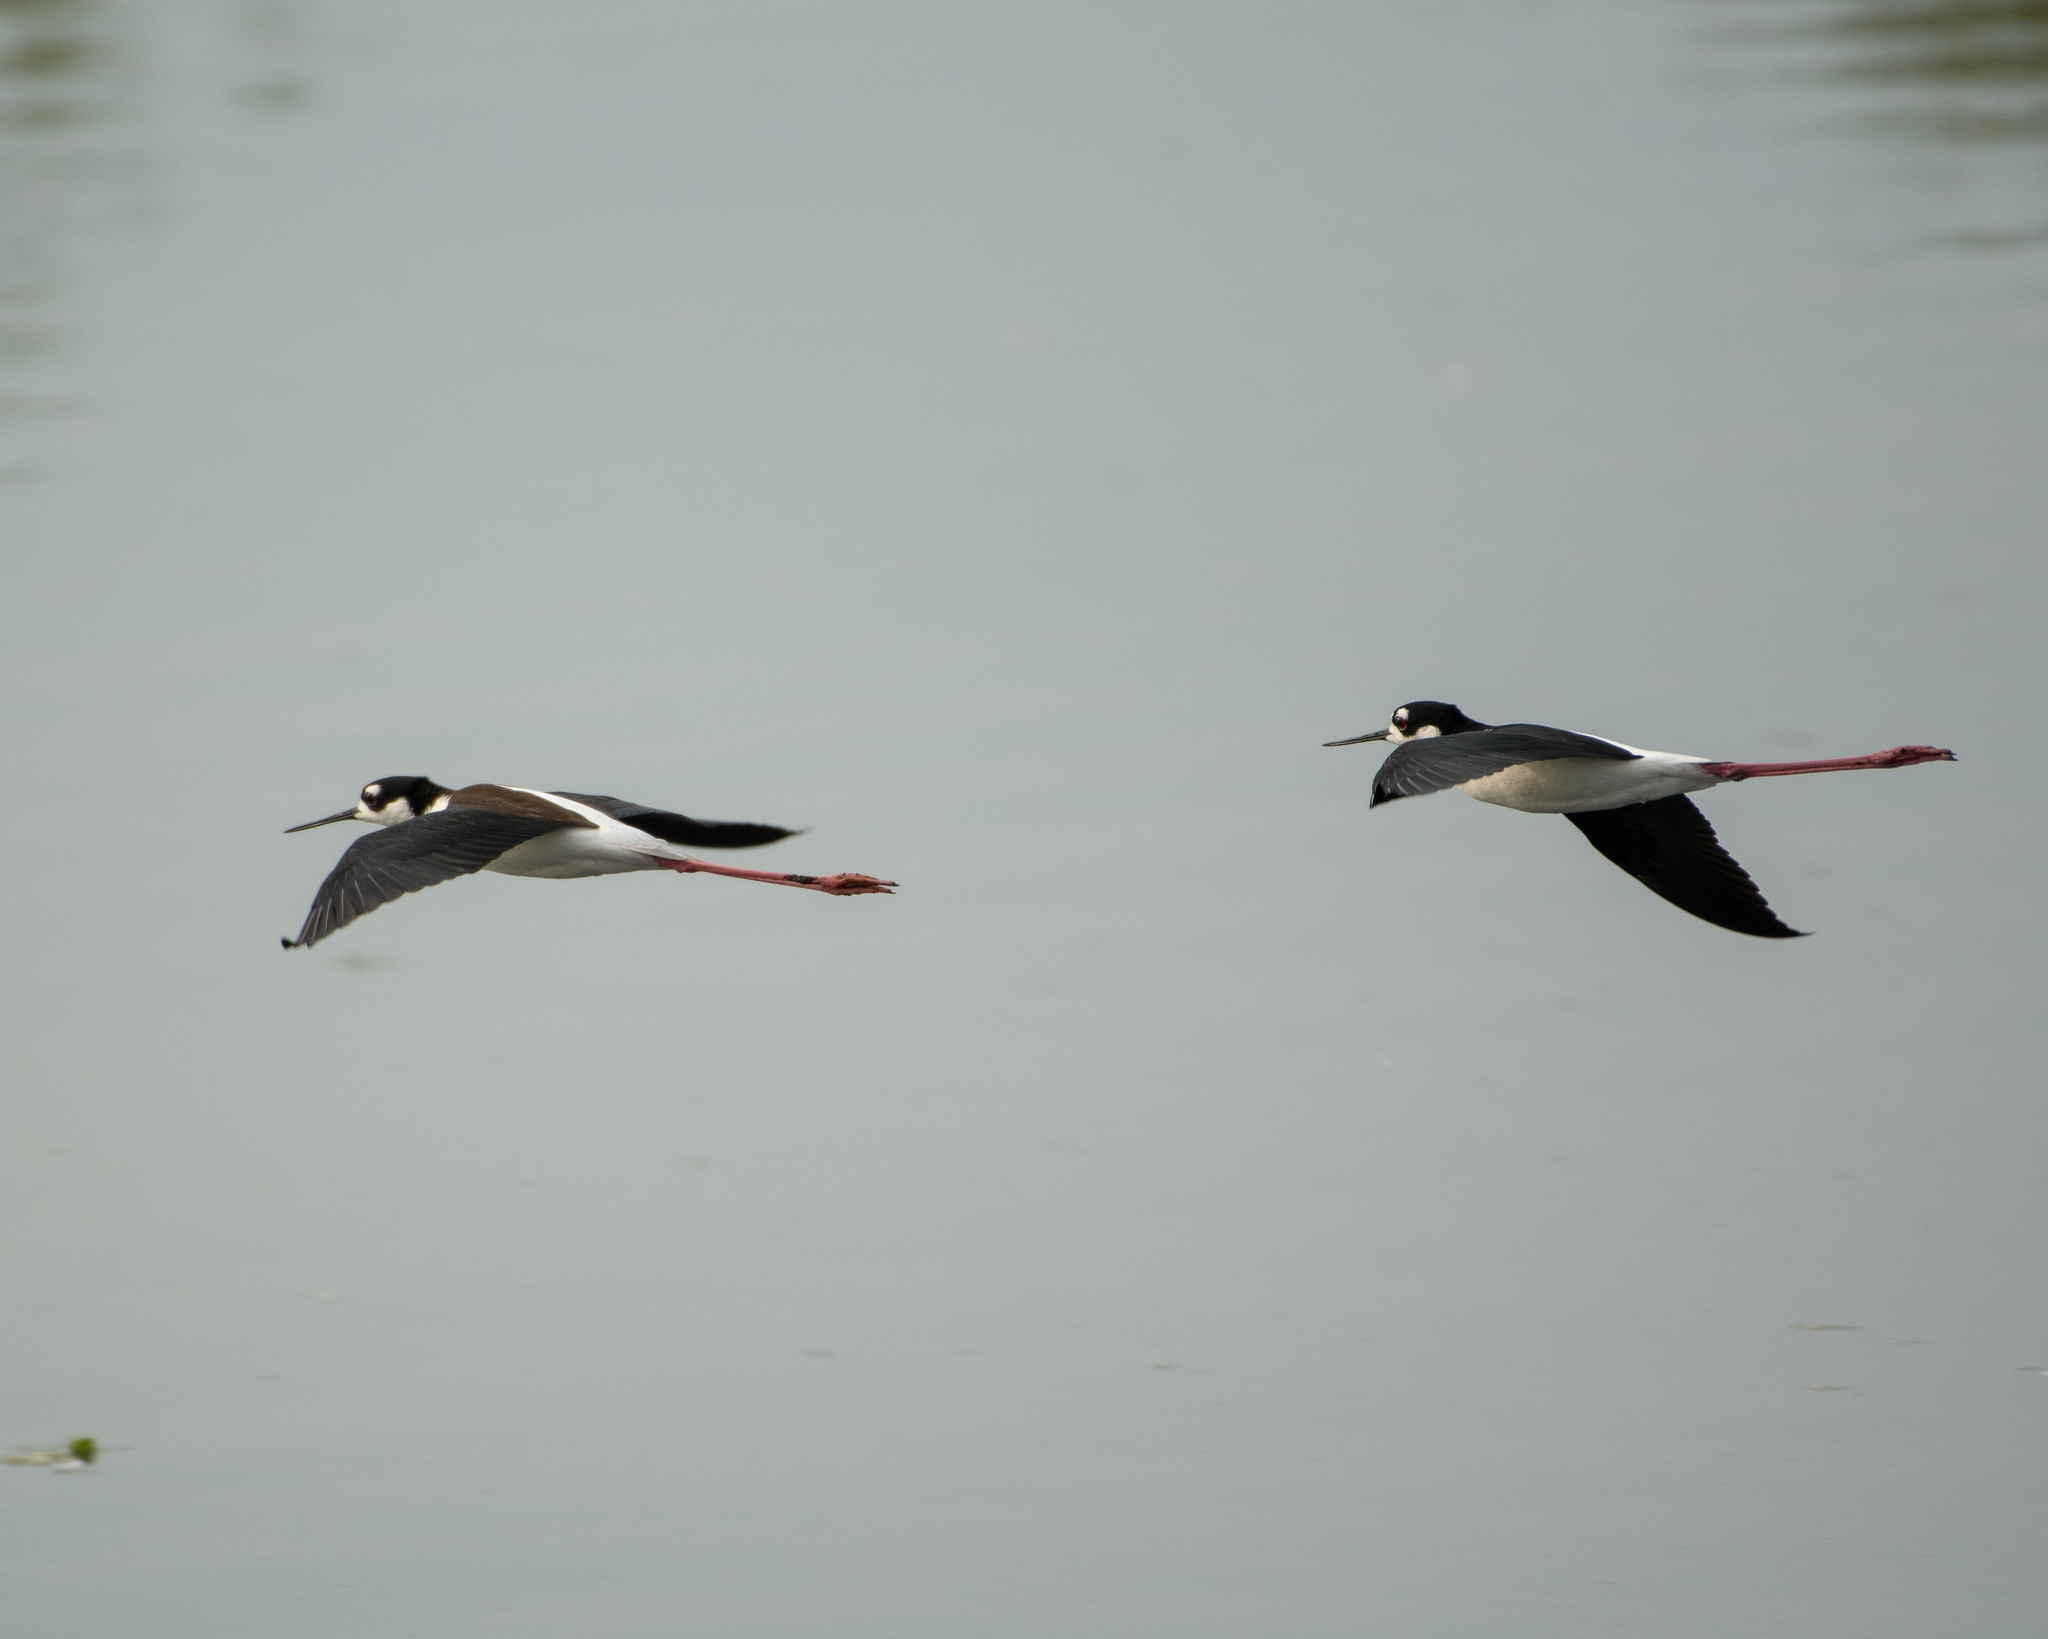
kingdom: Animalia
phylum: Chordata
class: Aves
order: Charadriiformes
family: Recurvirostridae
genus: Himantopus
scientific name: Himantopus mexicanus
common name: Black-necked stilt
